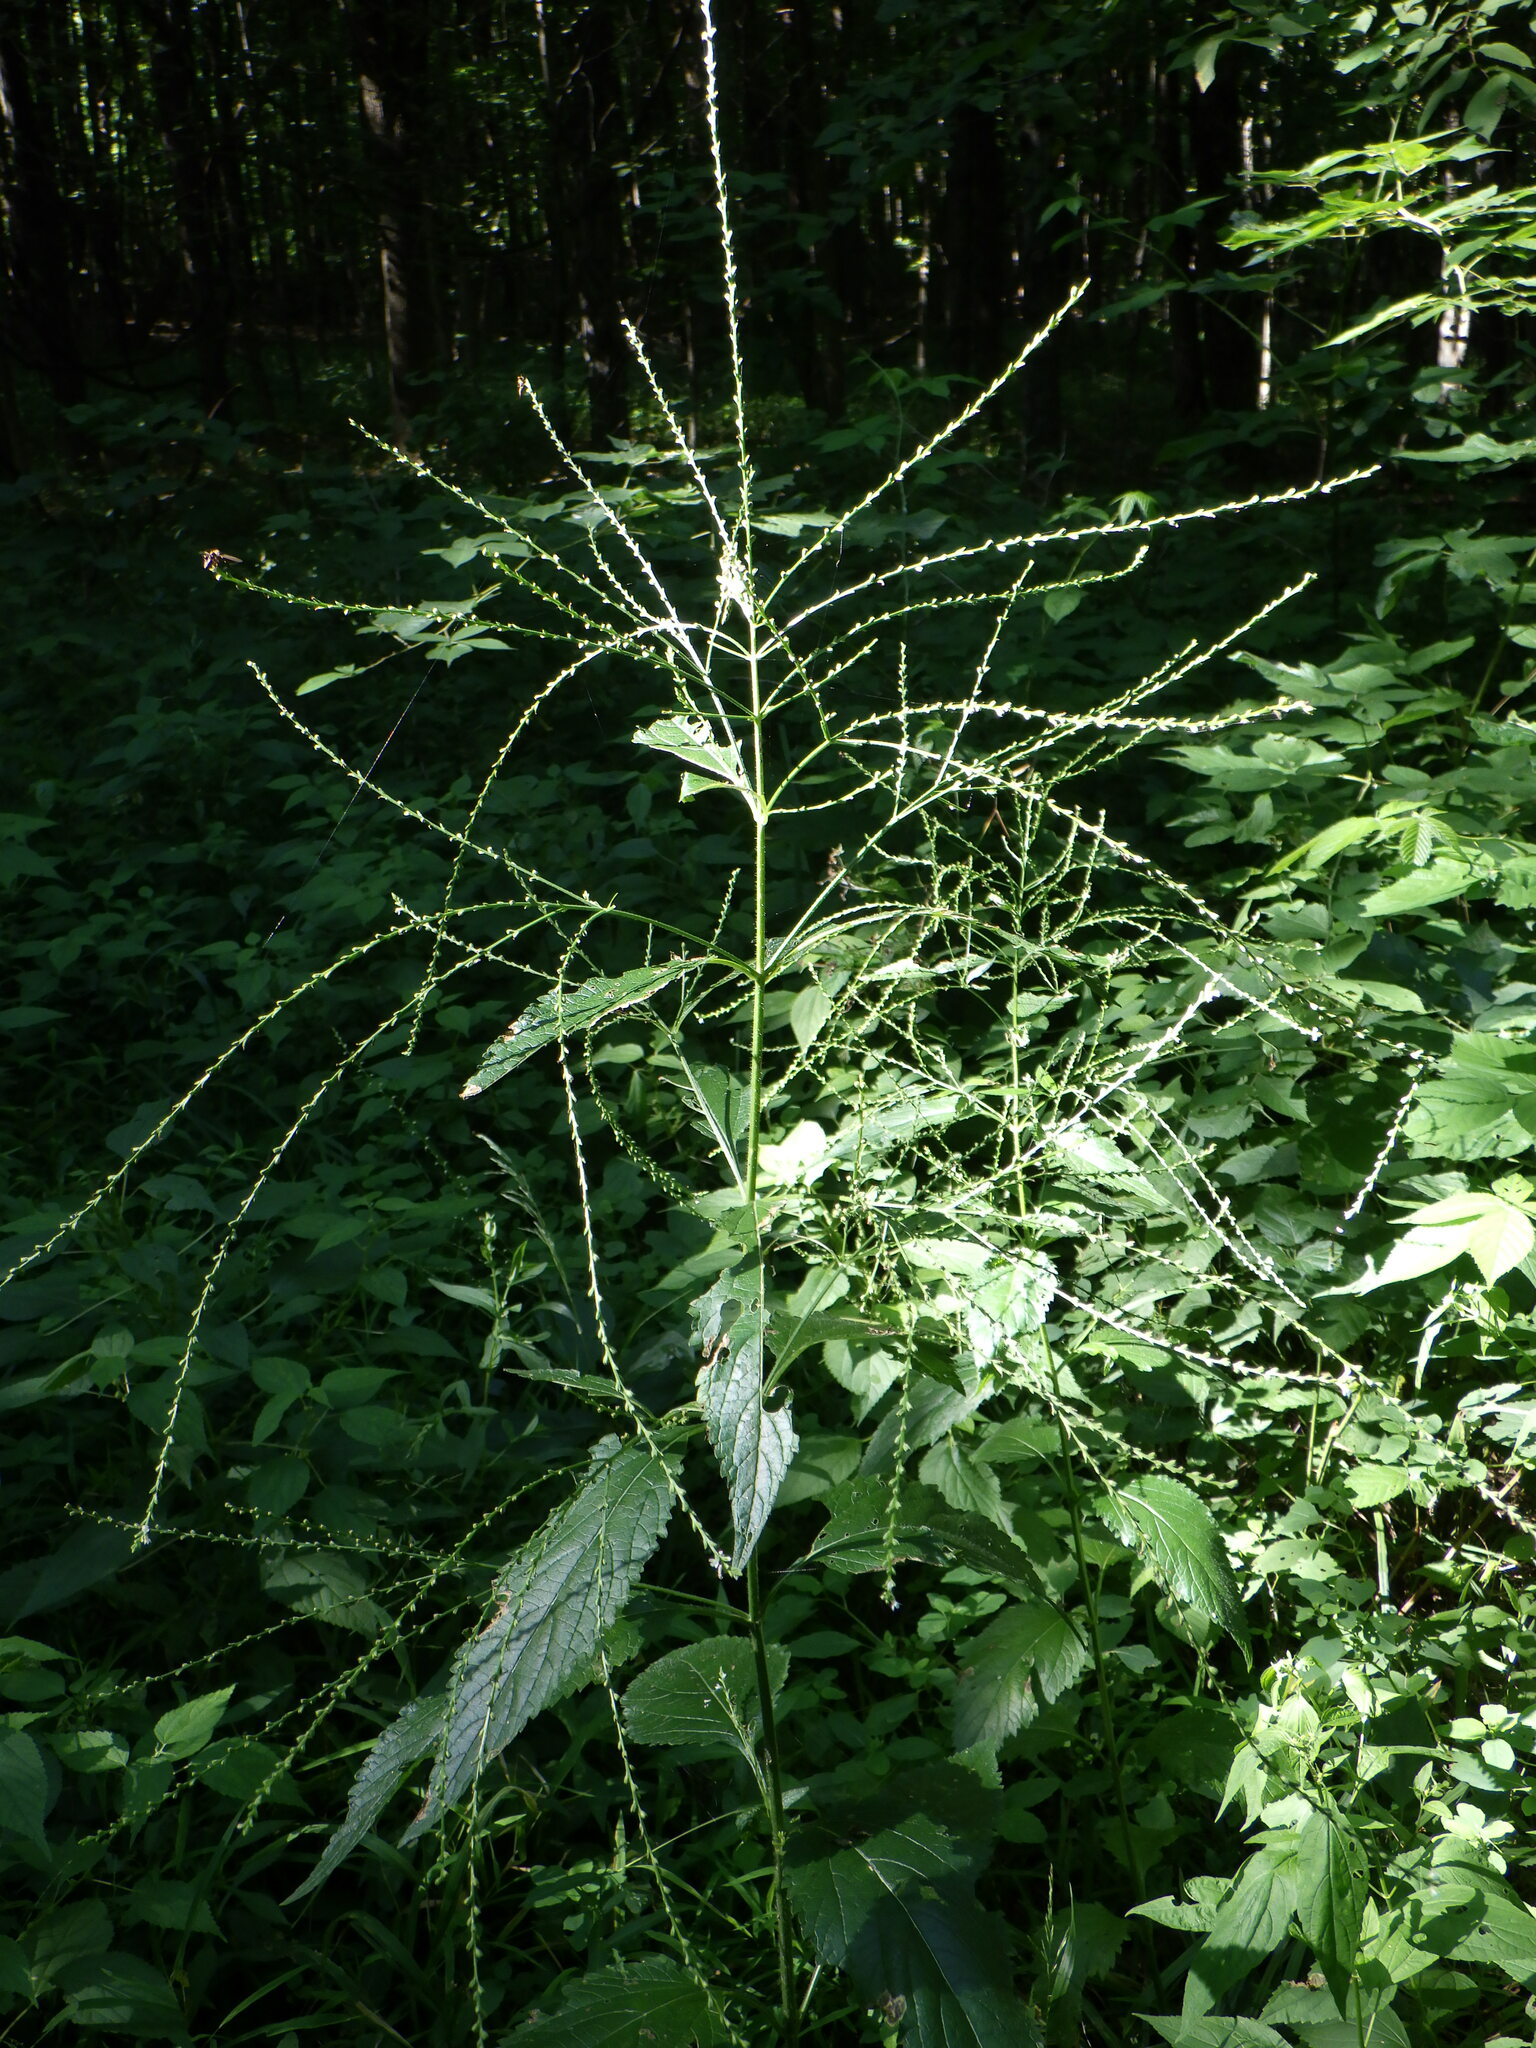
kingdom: Plantae
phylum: Tracheophyta
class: Magnoliopsida
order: Lamiales
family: Verbenaceae
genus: Verbena
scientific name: Verbena urticifolia
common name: Nettle-leaved vervain
